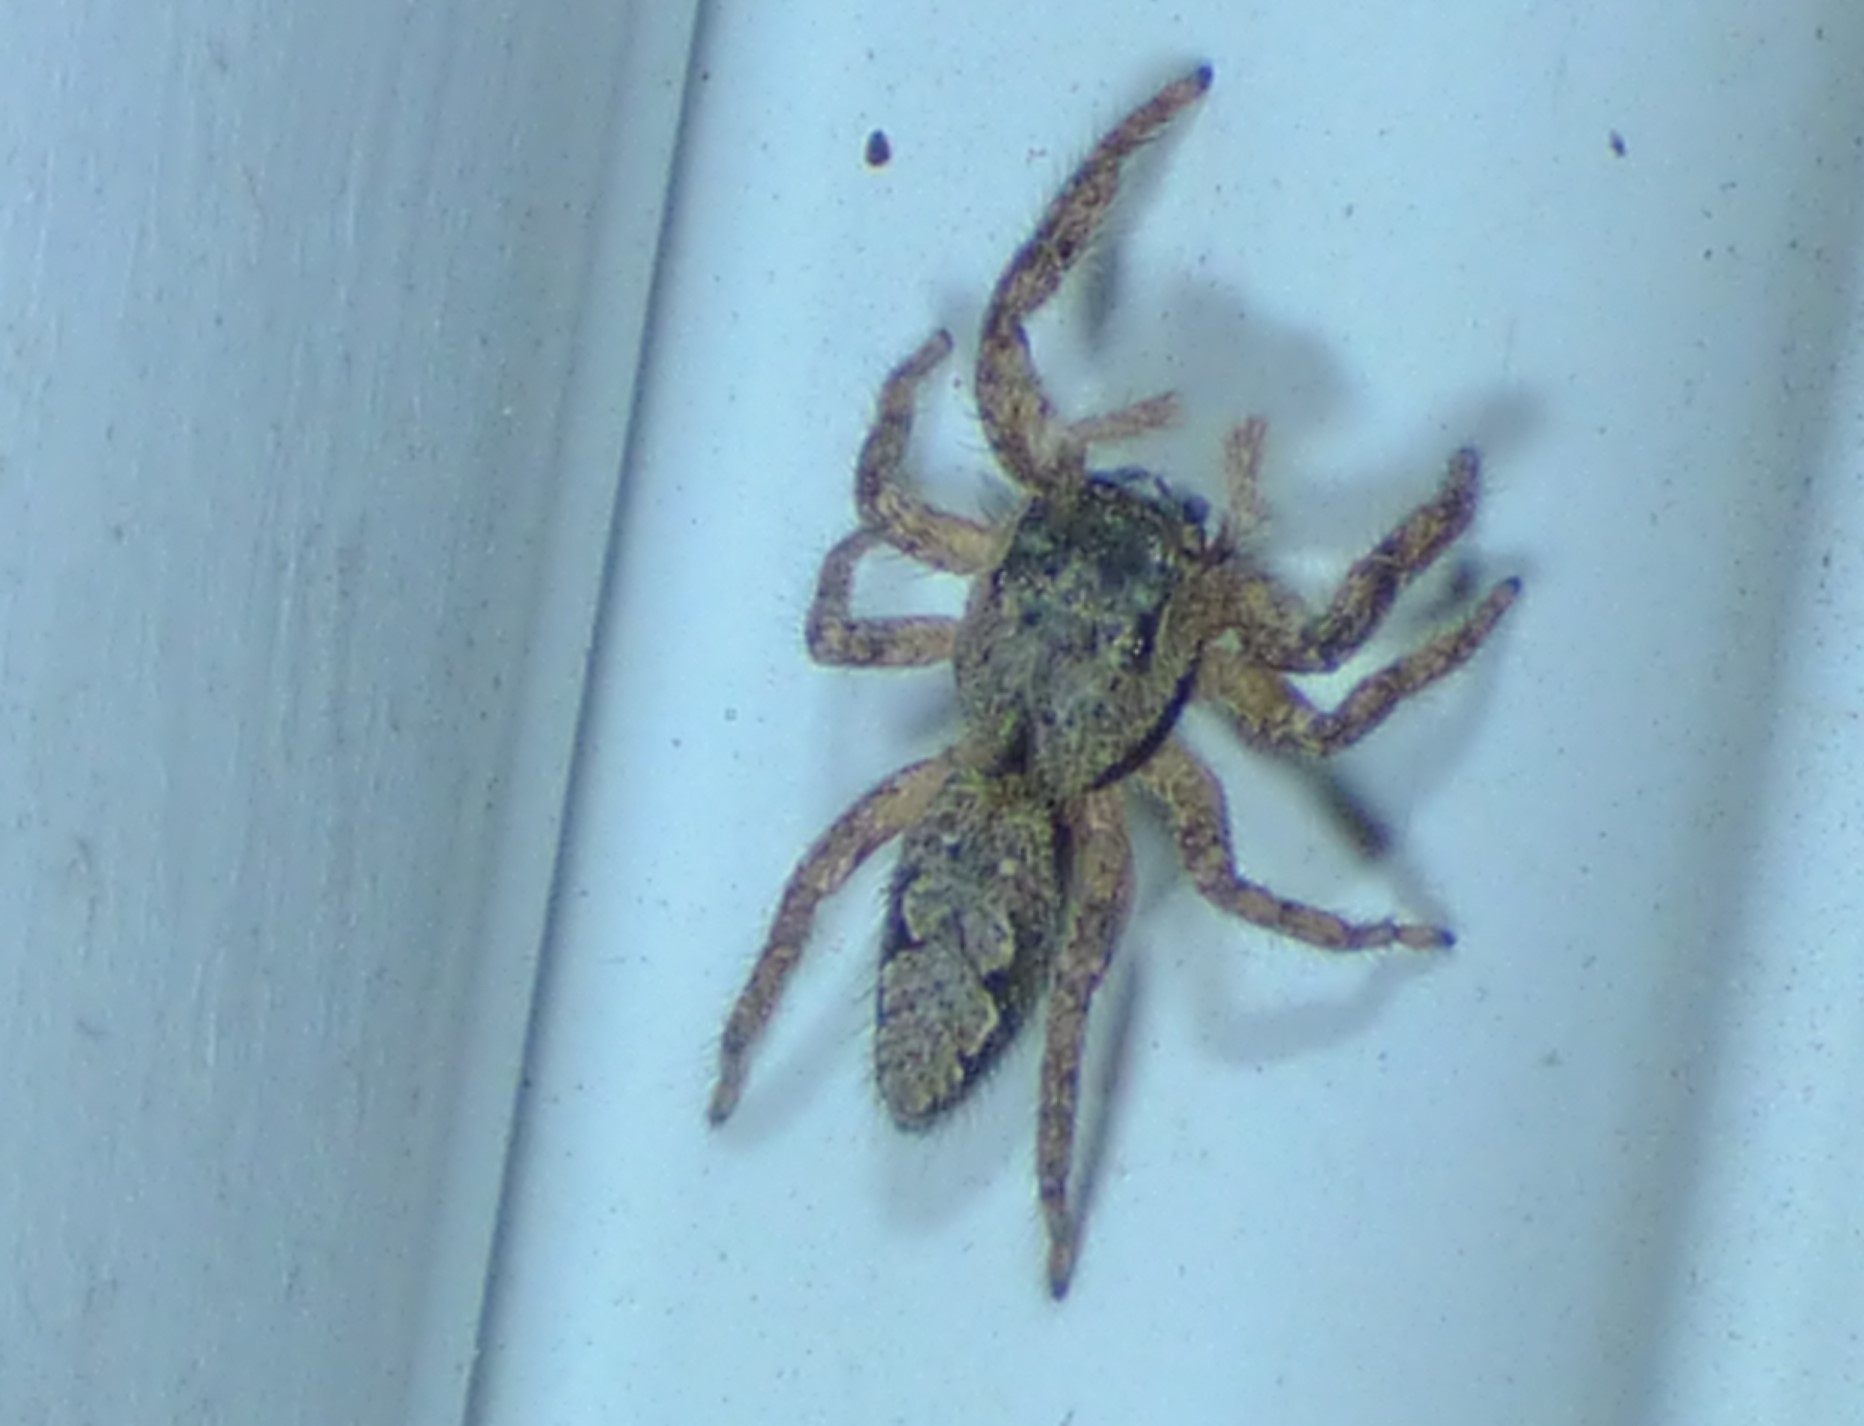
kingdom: Animalia
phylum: Arthropoda
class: Arachnida
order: Araneae
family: Salticidae
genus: Platycryptus
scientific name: Platycryptus undatus
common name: Tan jumping spider
